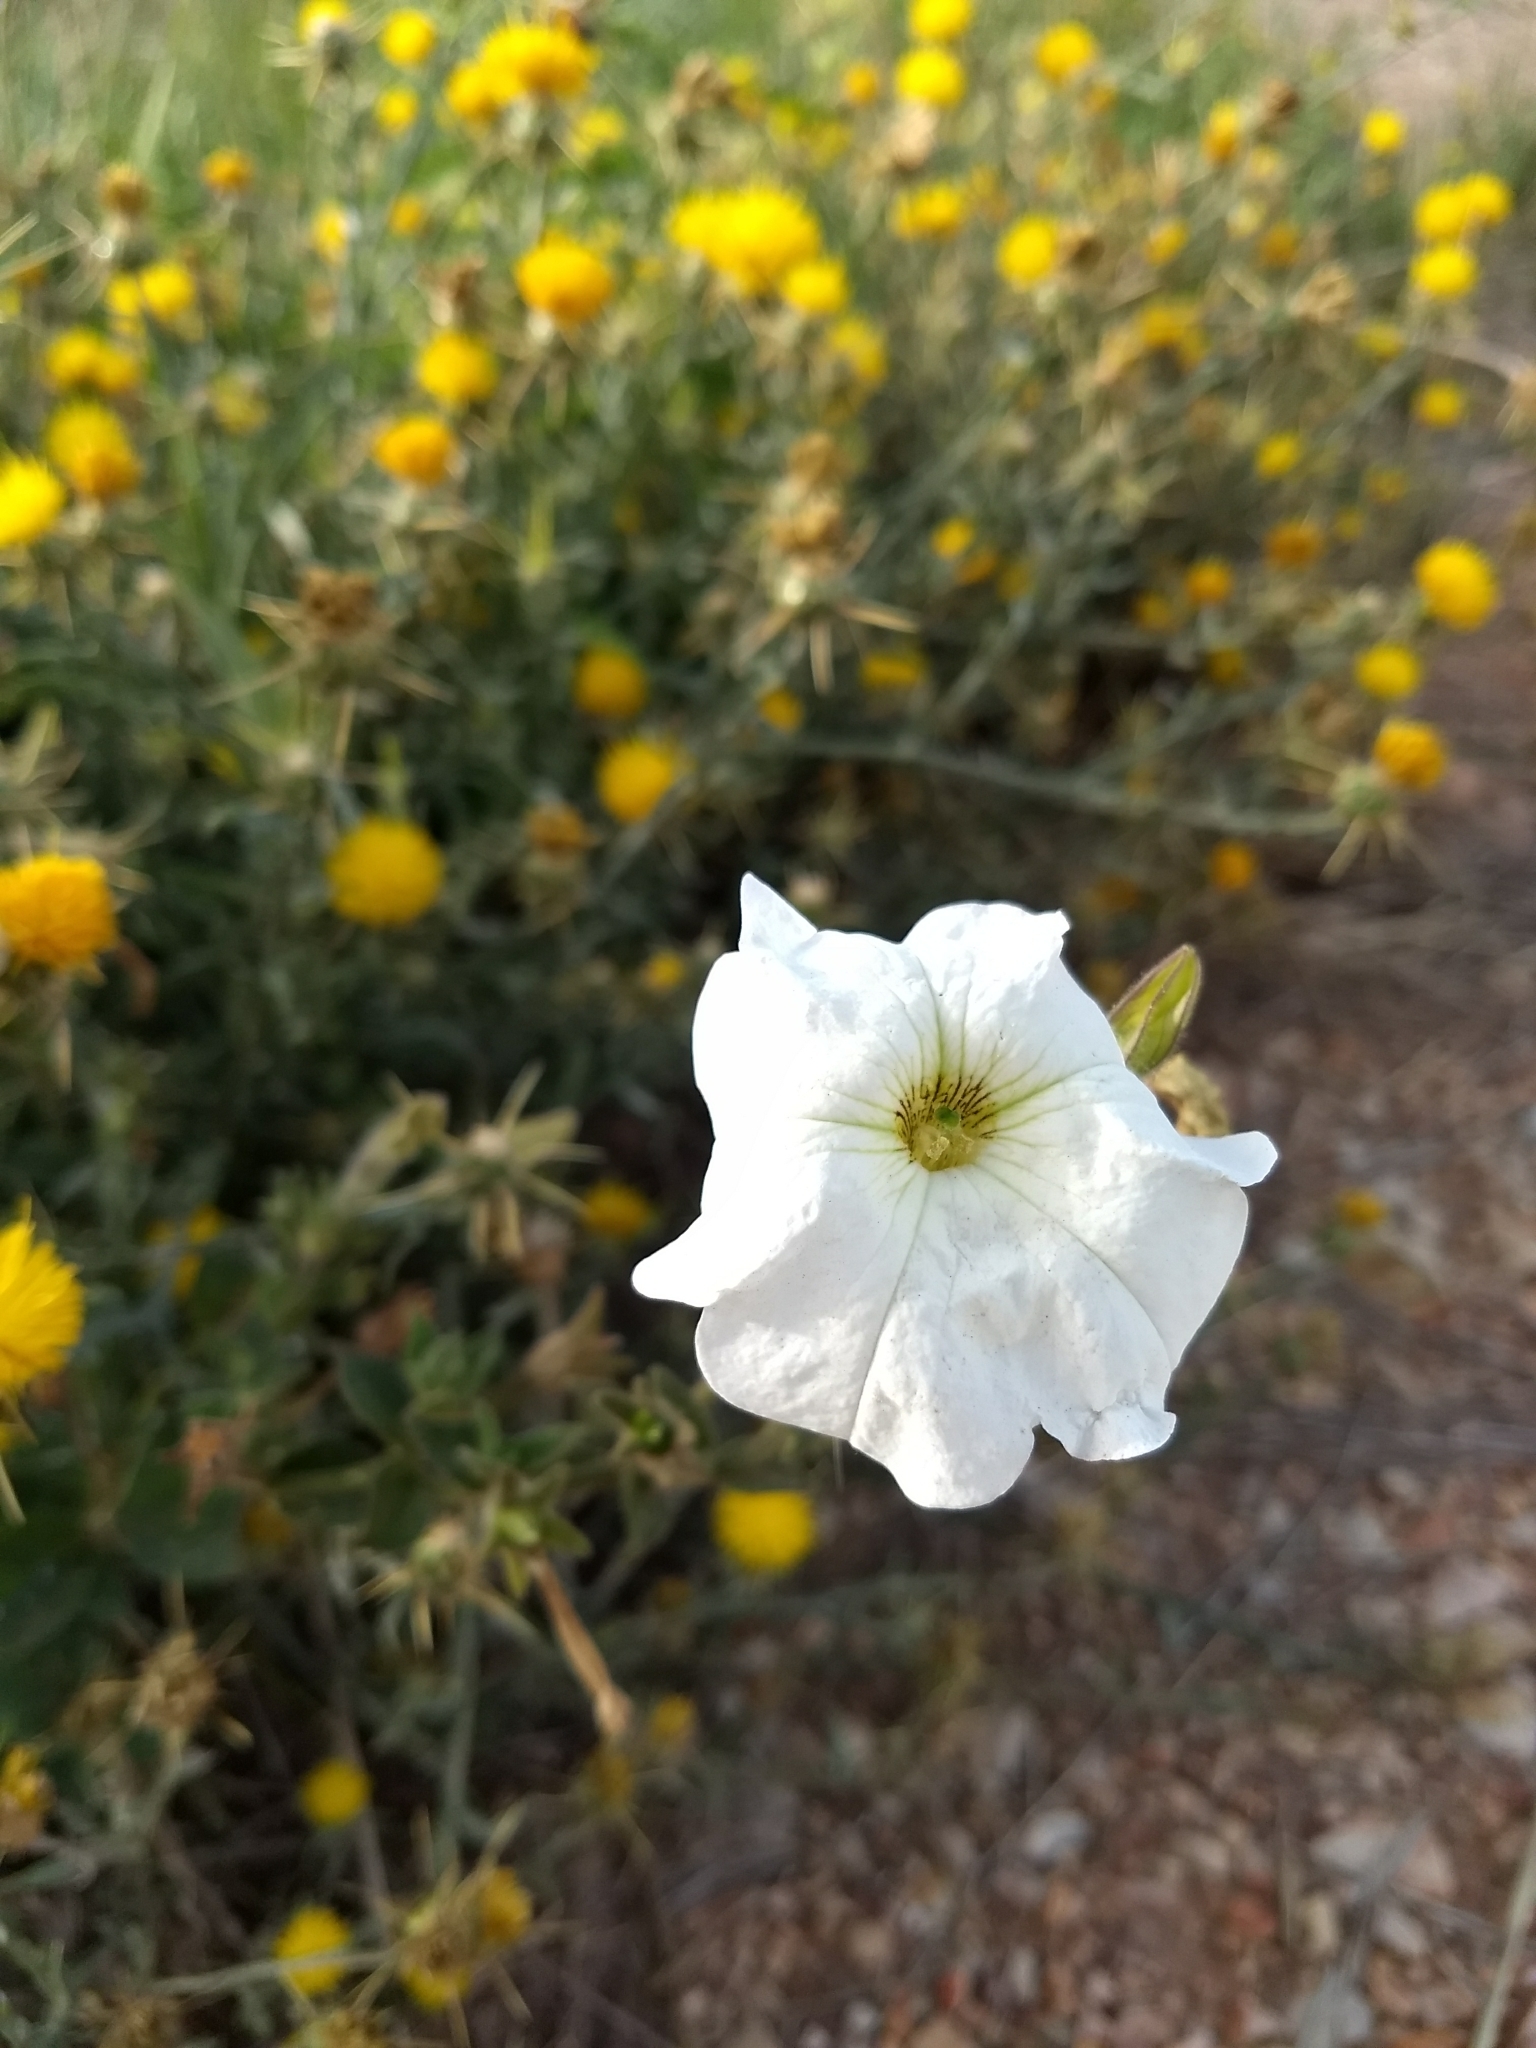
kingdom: Plantae
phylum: Tracheophyta
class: Magnoliopsida
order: Solanales
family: Solanaceae
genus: Petunia
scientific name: Petunia axillaris
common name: Large white petunia
